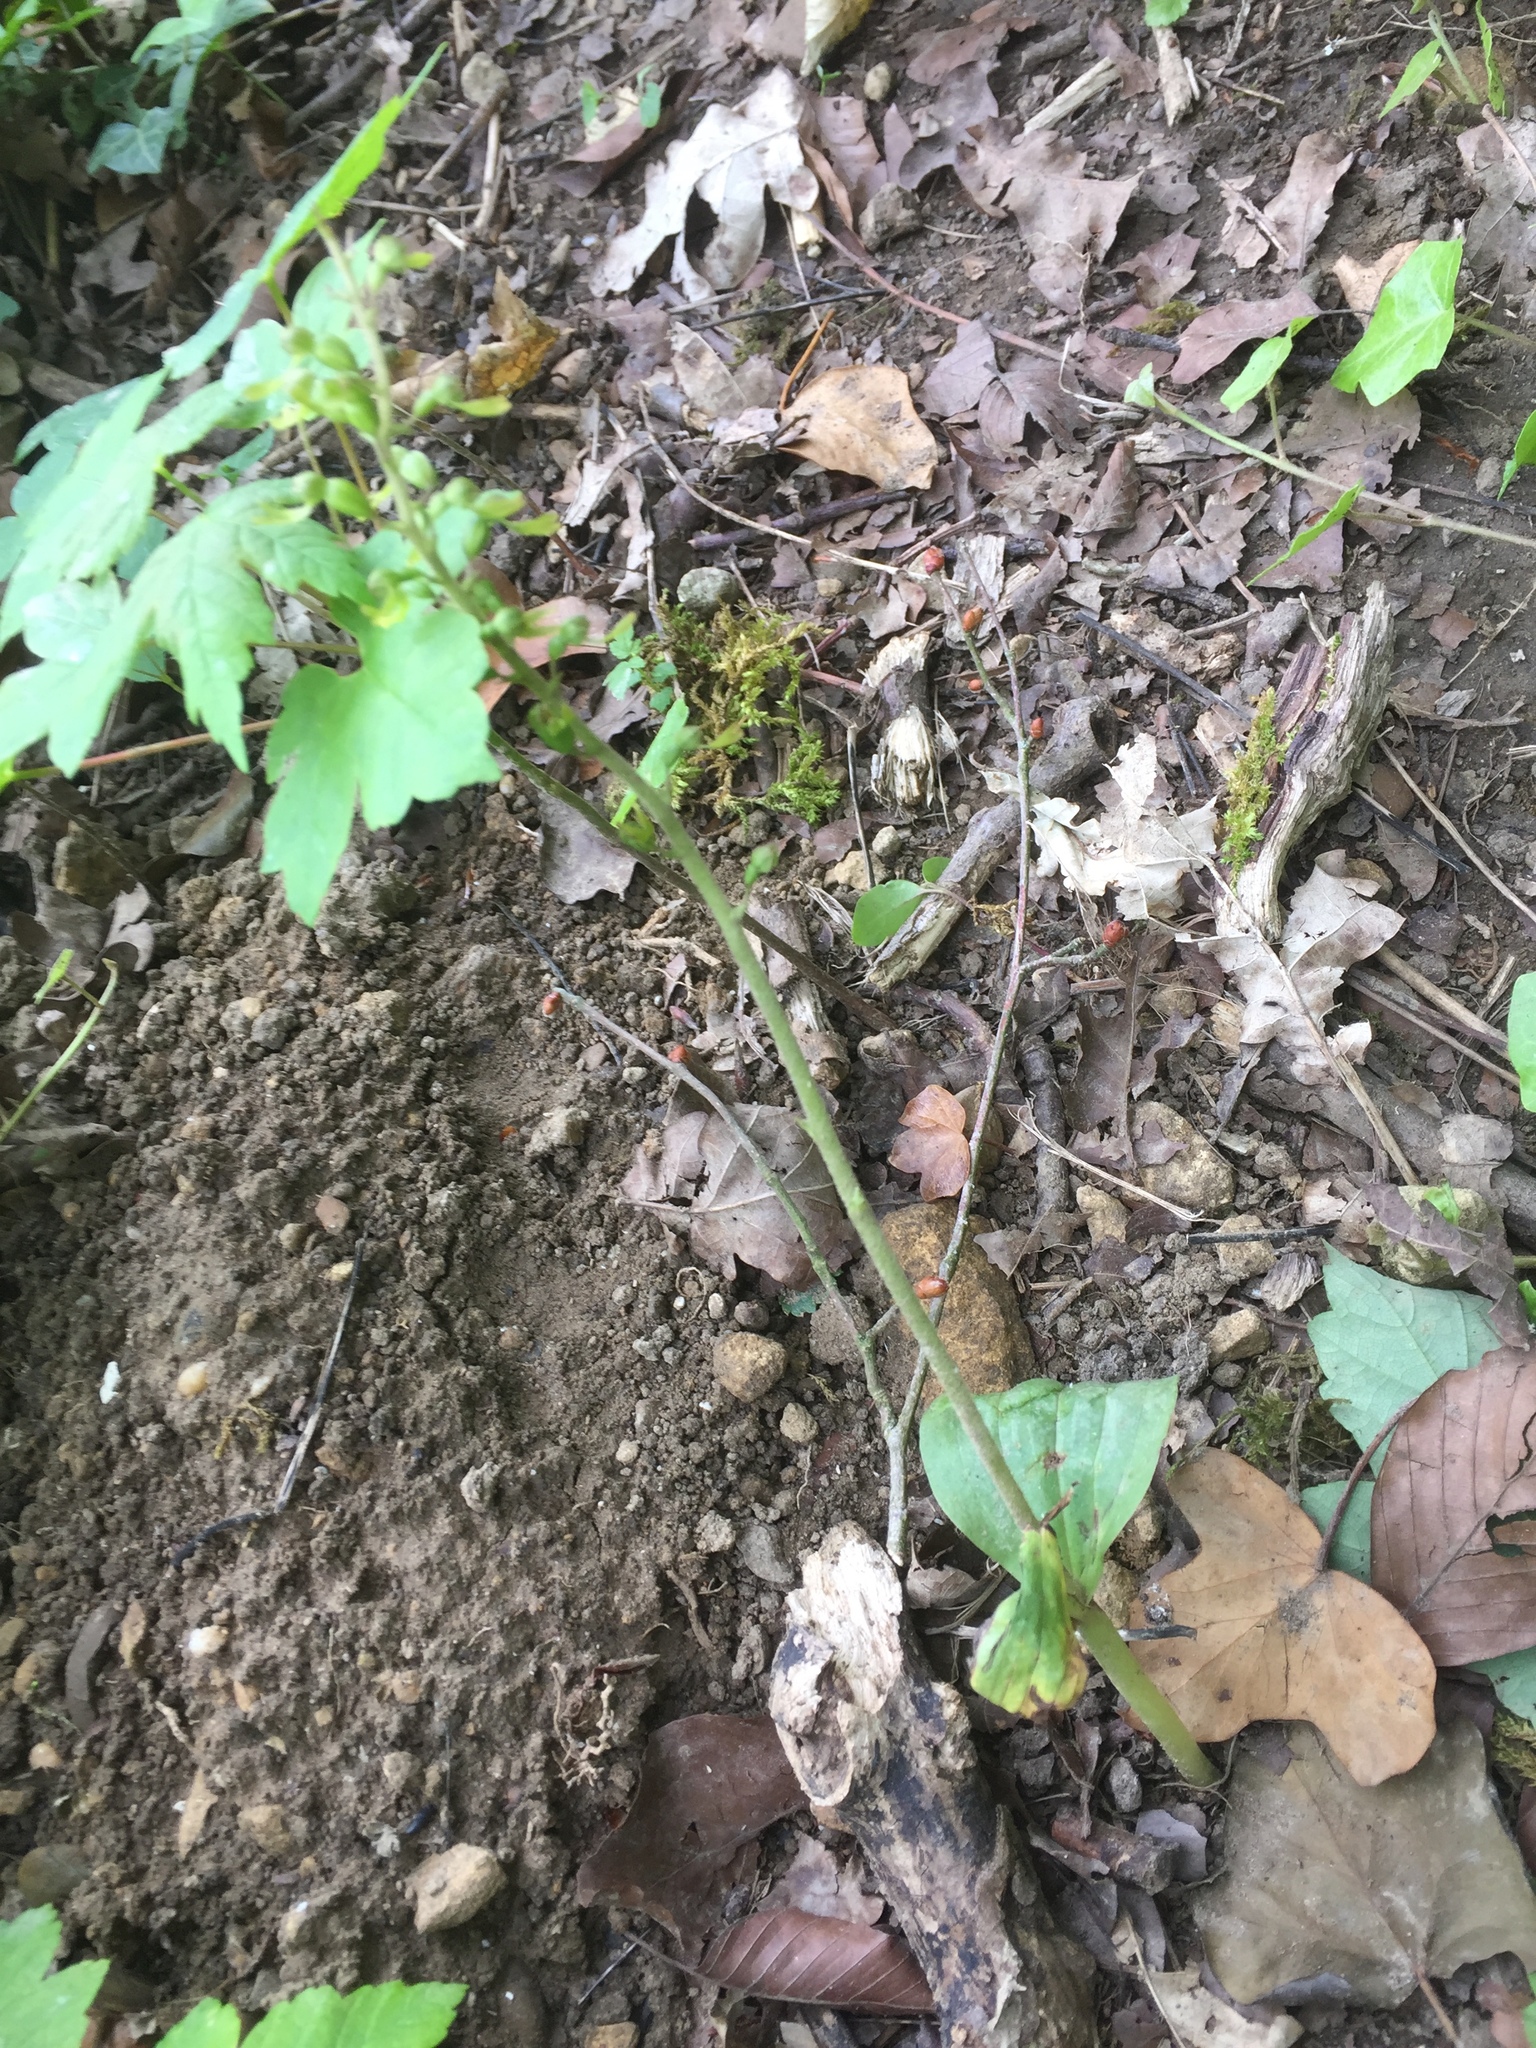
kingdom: Plantae
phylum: Tracheophyta
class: Liliopsida
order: Asparagales
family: Orchidaceae
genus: Neottia
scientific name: Neottia ovata
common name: Common twayblade
